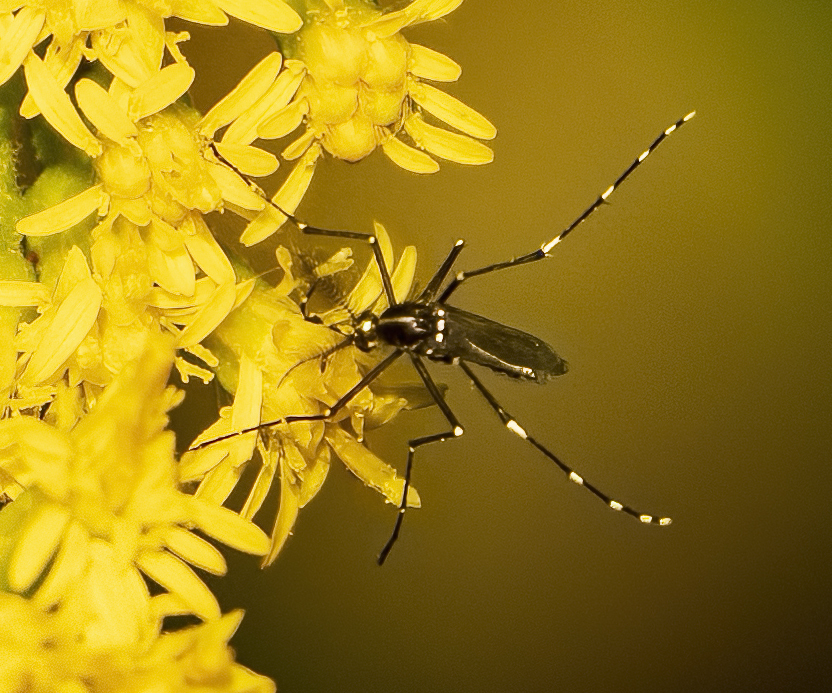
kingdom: Animalia
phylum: Arthropoda
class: Insecta
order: Diptera
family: Culicidae
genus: Aedes
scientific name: Aedes albopictus
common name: Tiger mosquito
